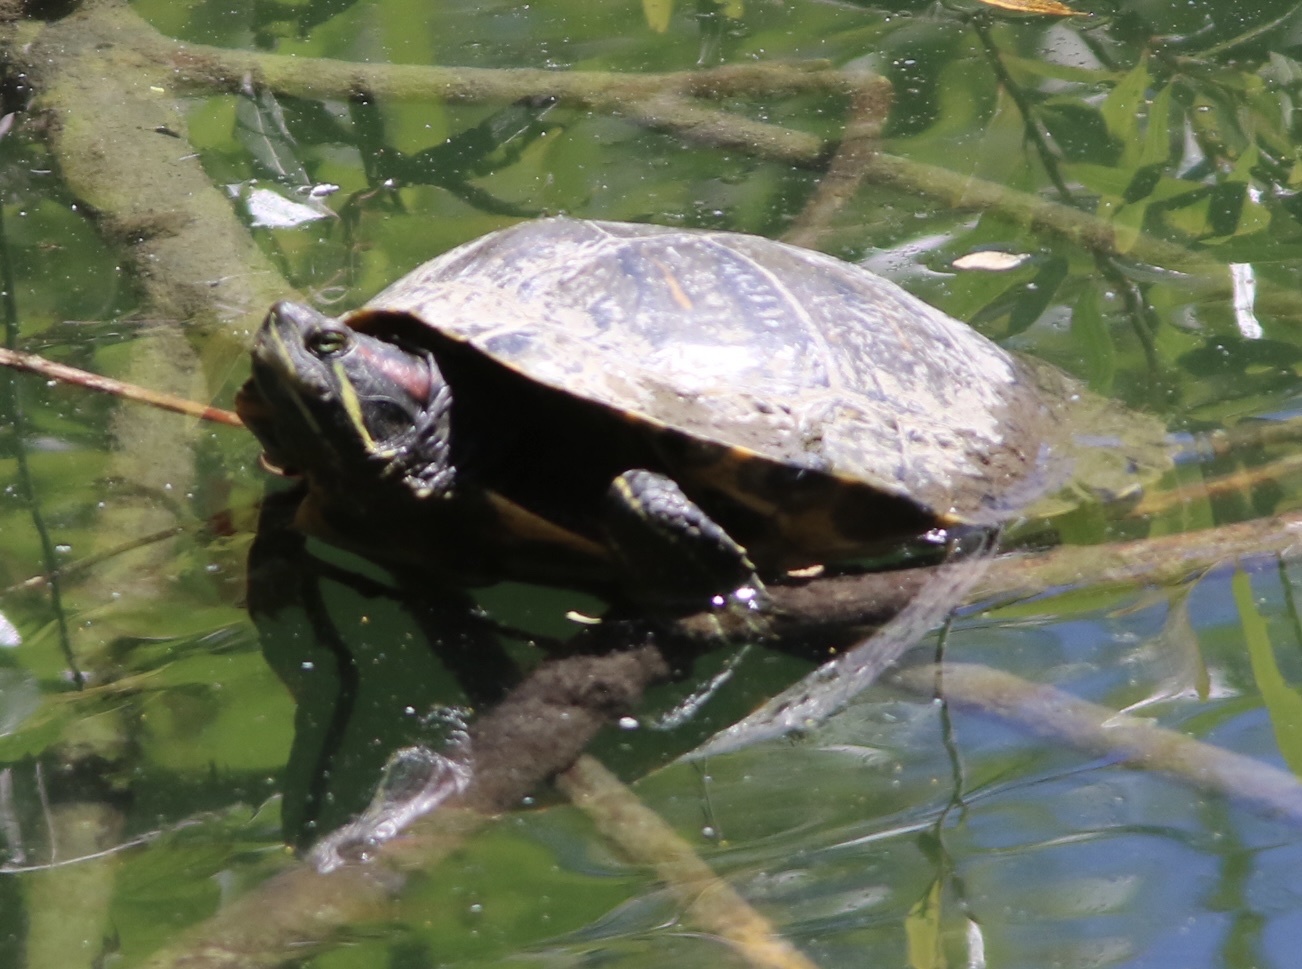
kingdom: Animalia
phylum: Chordata
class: Testudines
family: Emydidae
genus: Trachemys
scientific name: Trachemys scripta
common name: Slider
